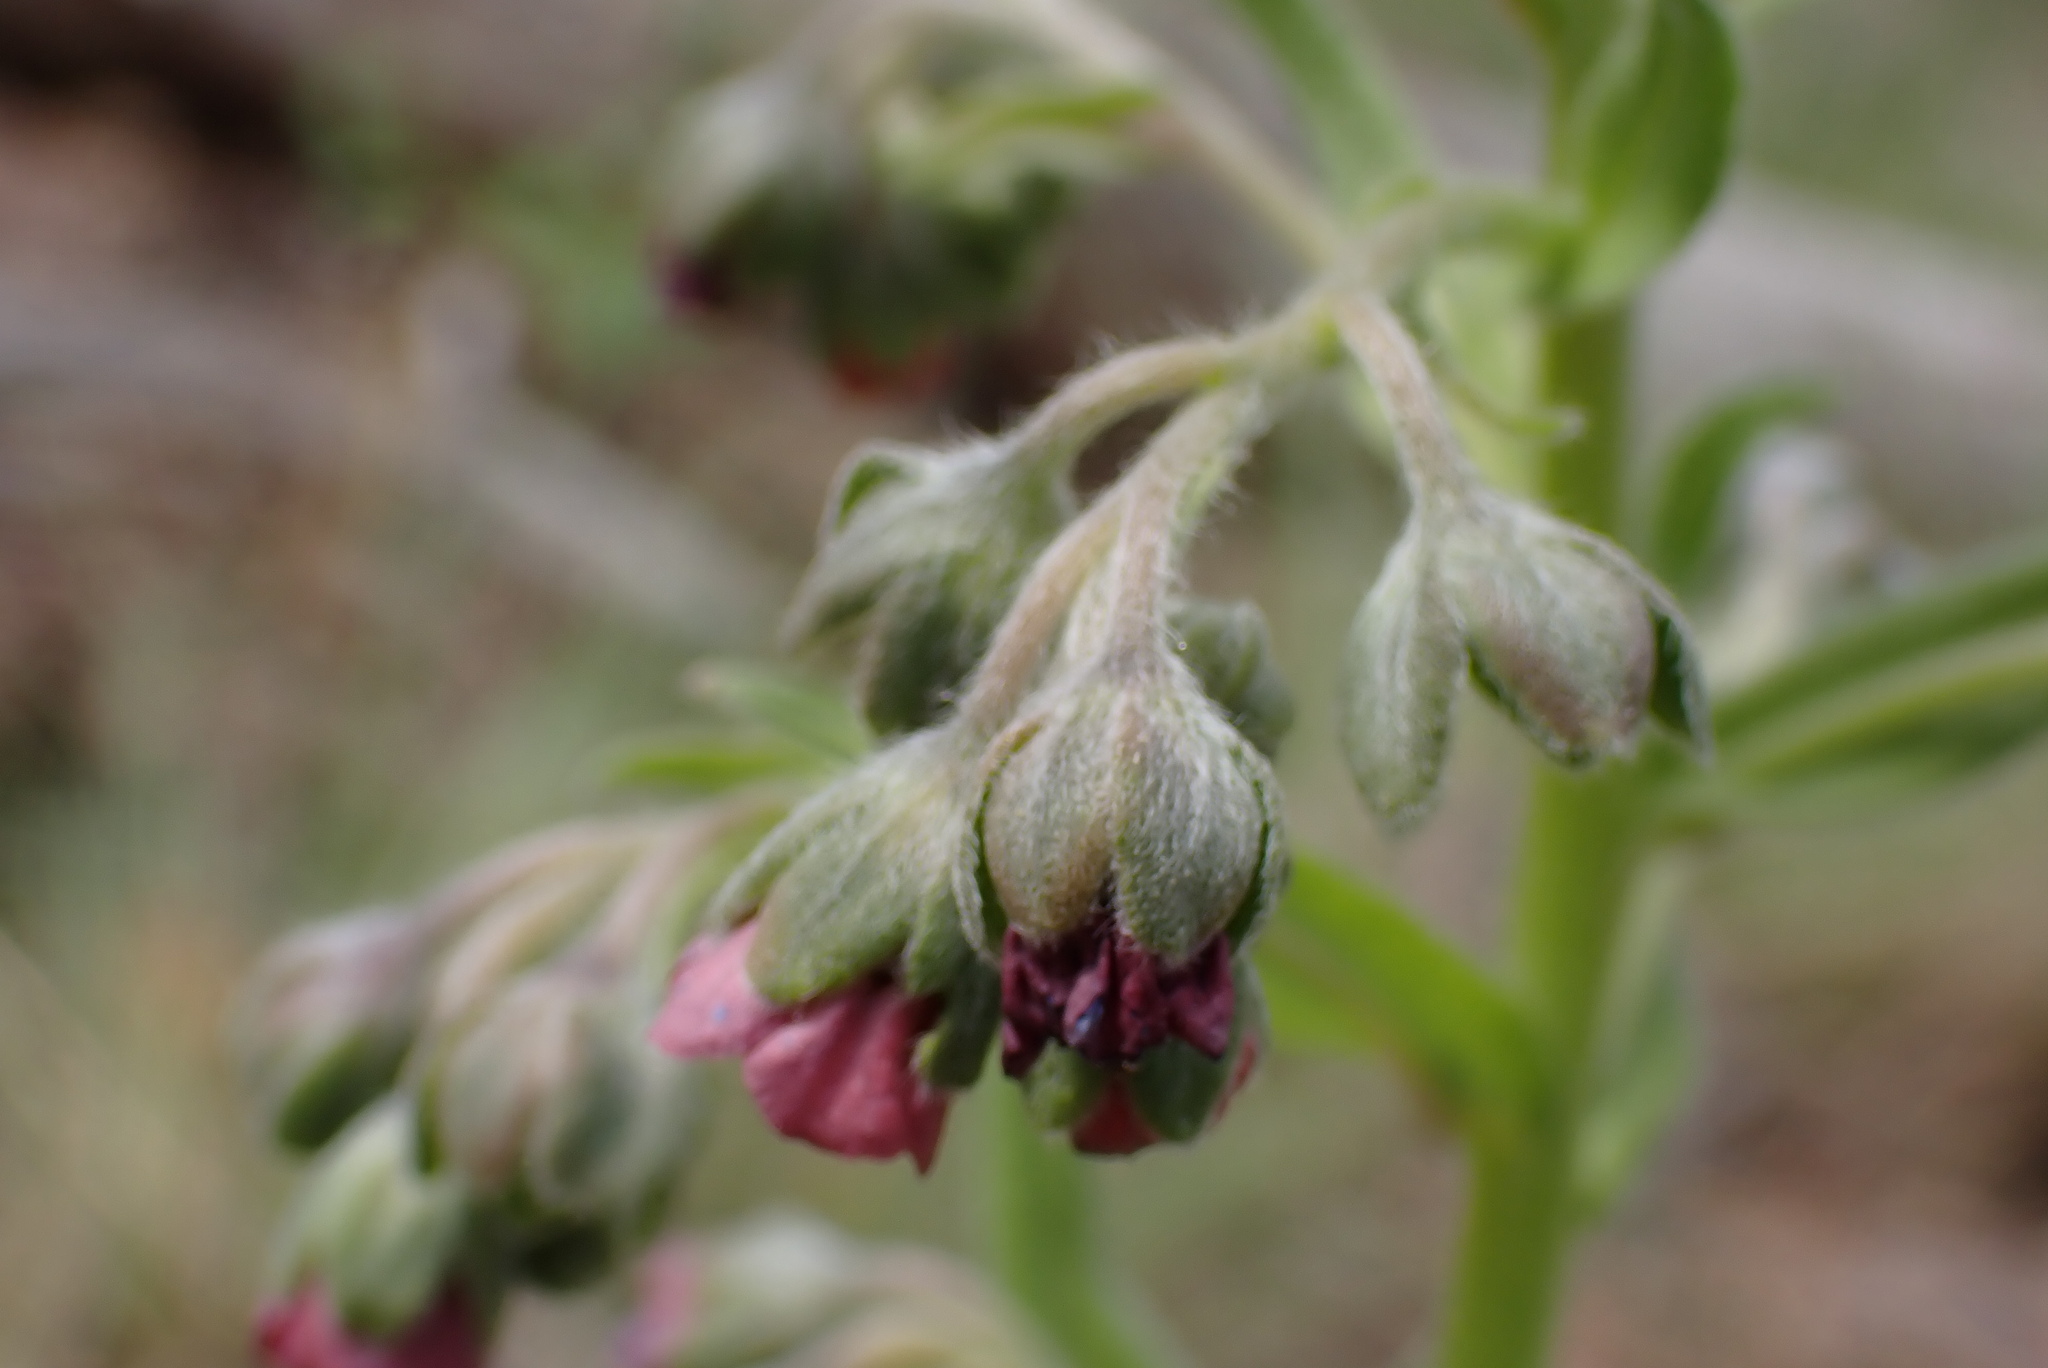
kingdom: Plantae
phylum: Tracheophyta
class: Magnoliopsida
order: Boraginales
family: Boraginaceae
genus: Cynoglossum
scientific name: Cynoglossum officinale
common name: Hound's-tongue
